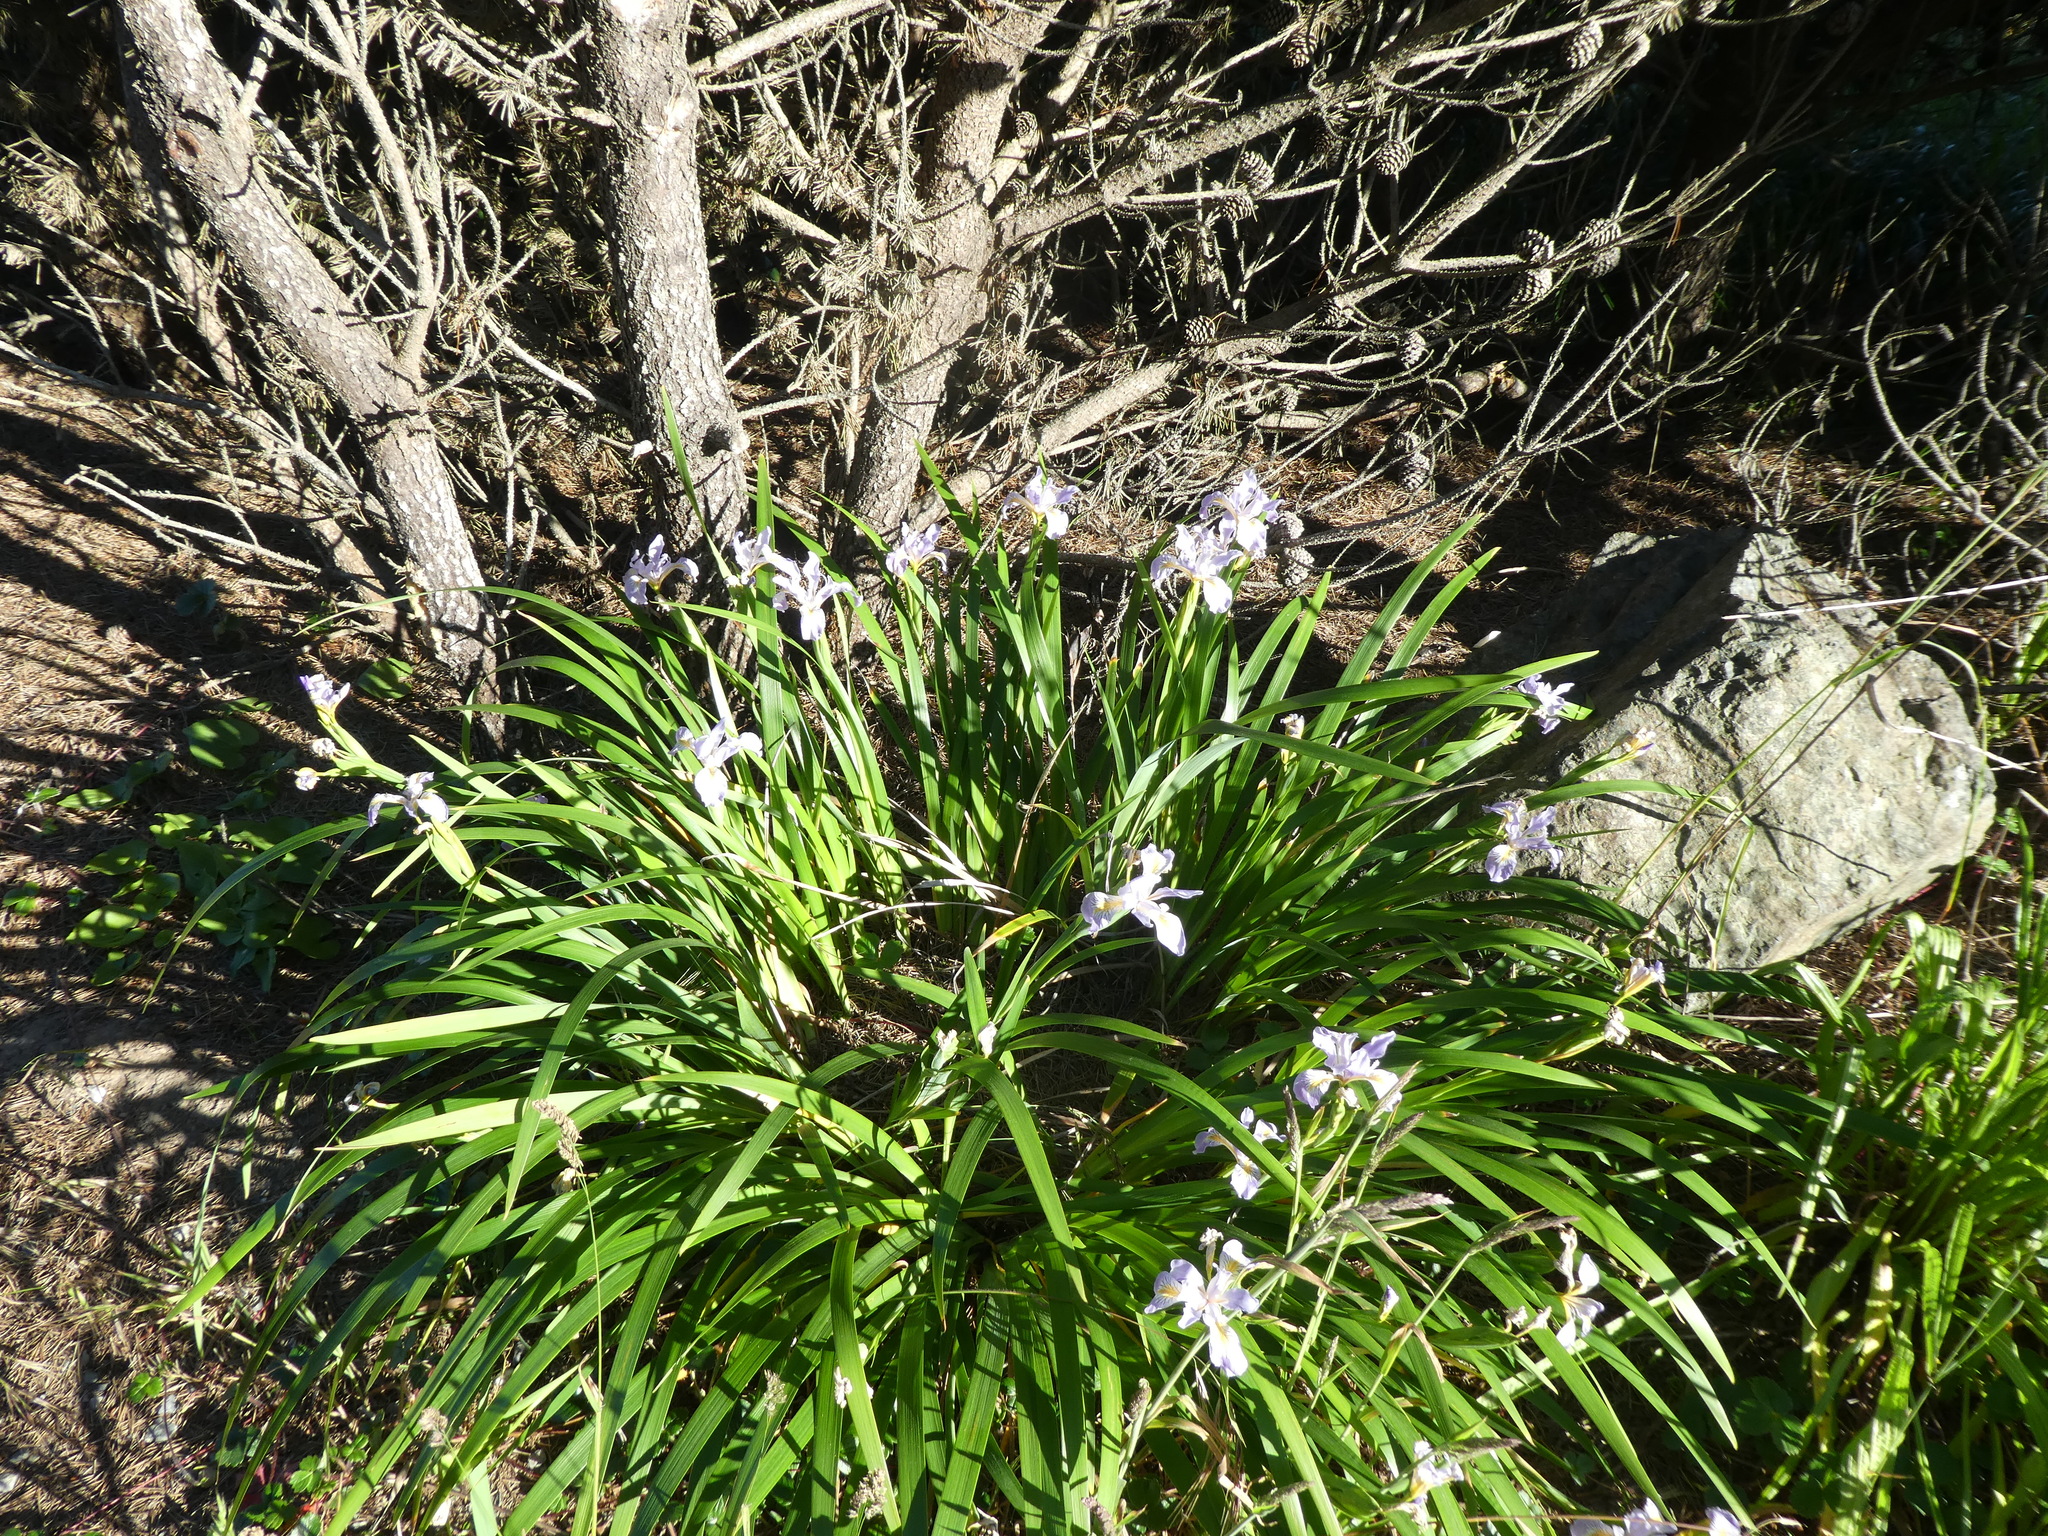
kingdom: Plantae
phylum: Tracheophyta
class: Liliopsida
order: Asparagales
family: Iridaceae
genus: Iris
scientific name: Iris douglasiana
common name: Marin iris
